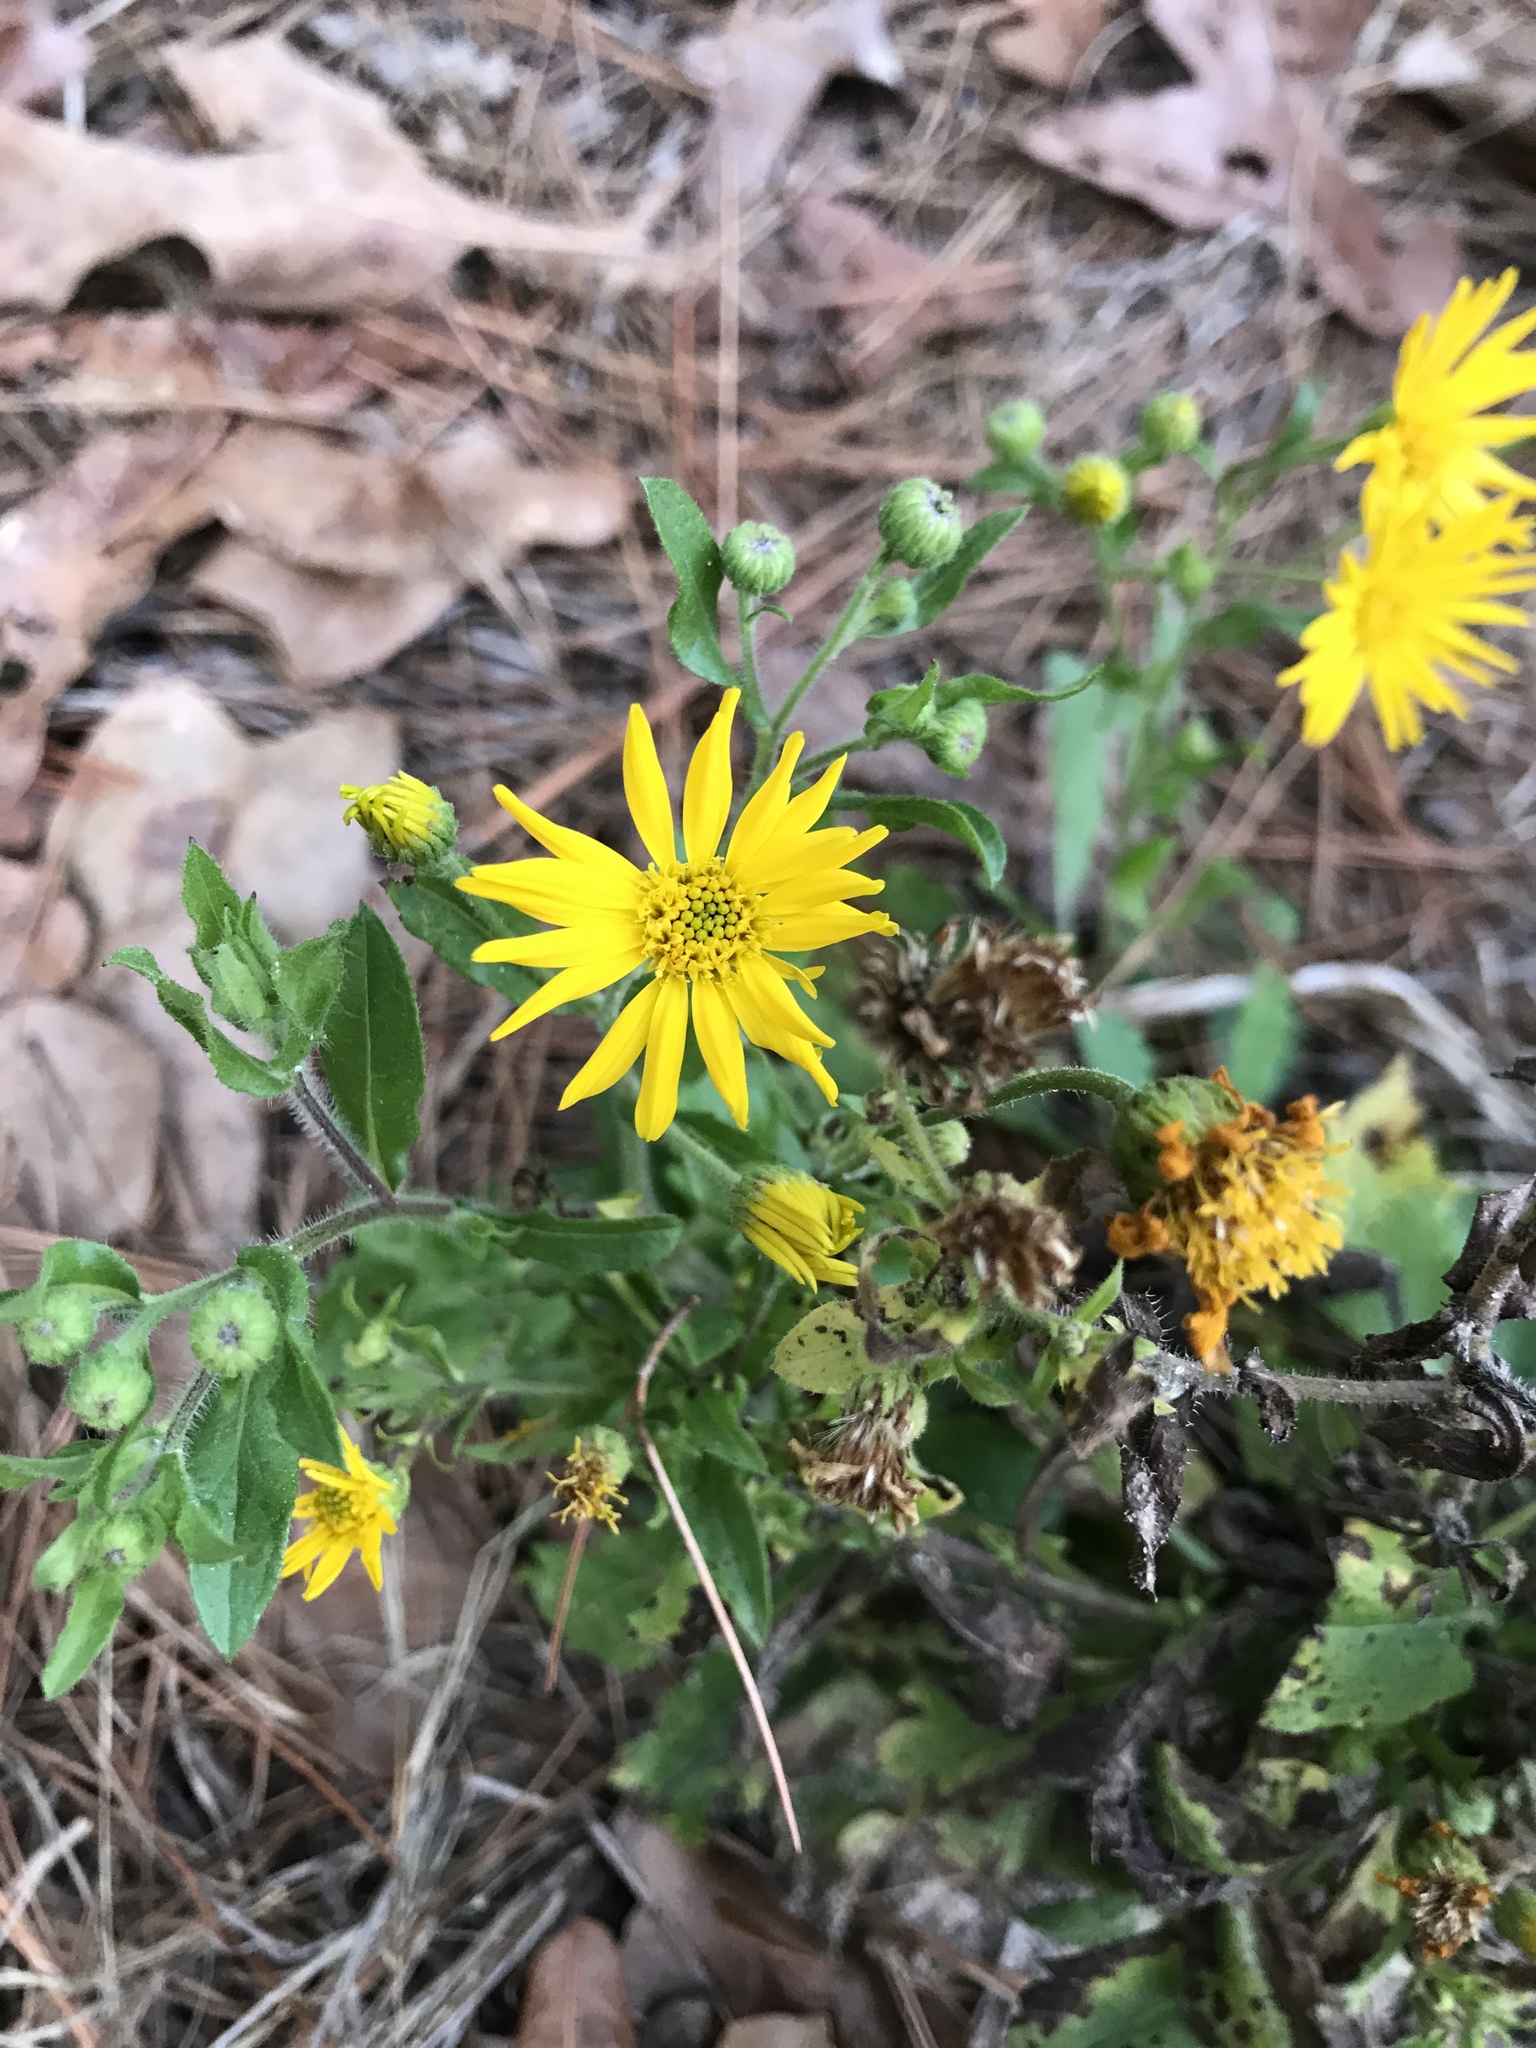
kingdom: Plantae
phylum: Tracheophyta
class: Magnoliopsida
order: Asterales
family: Asteraceae
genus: Heterotheca
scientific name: Heterotheca subaxillaris
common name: Camphorweed
